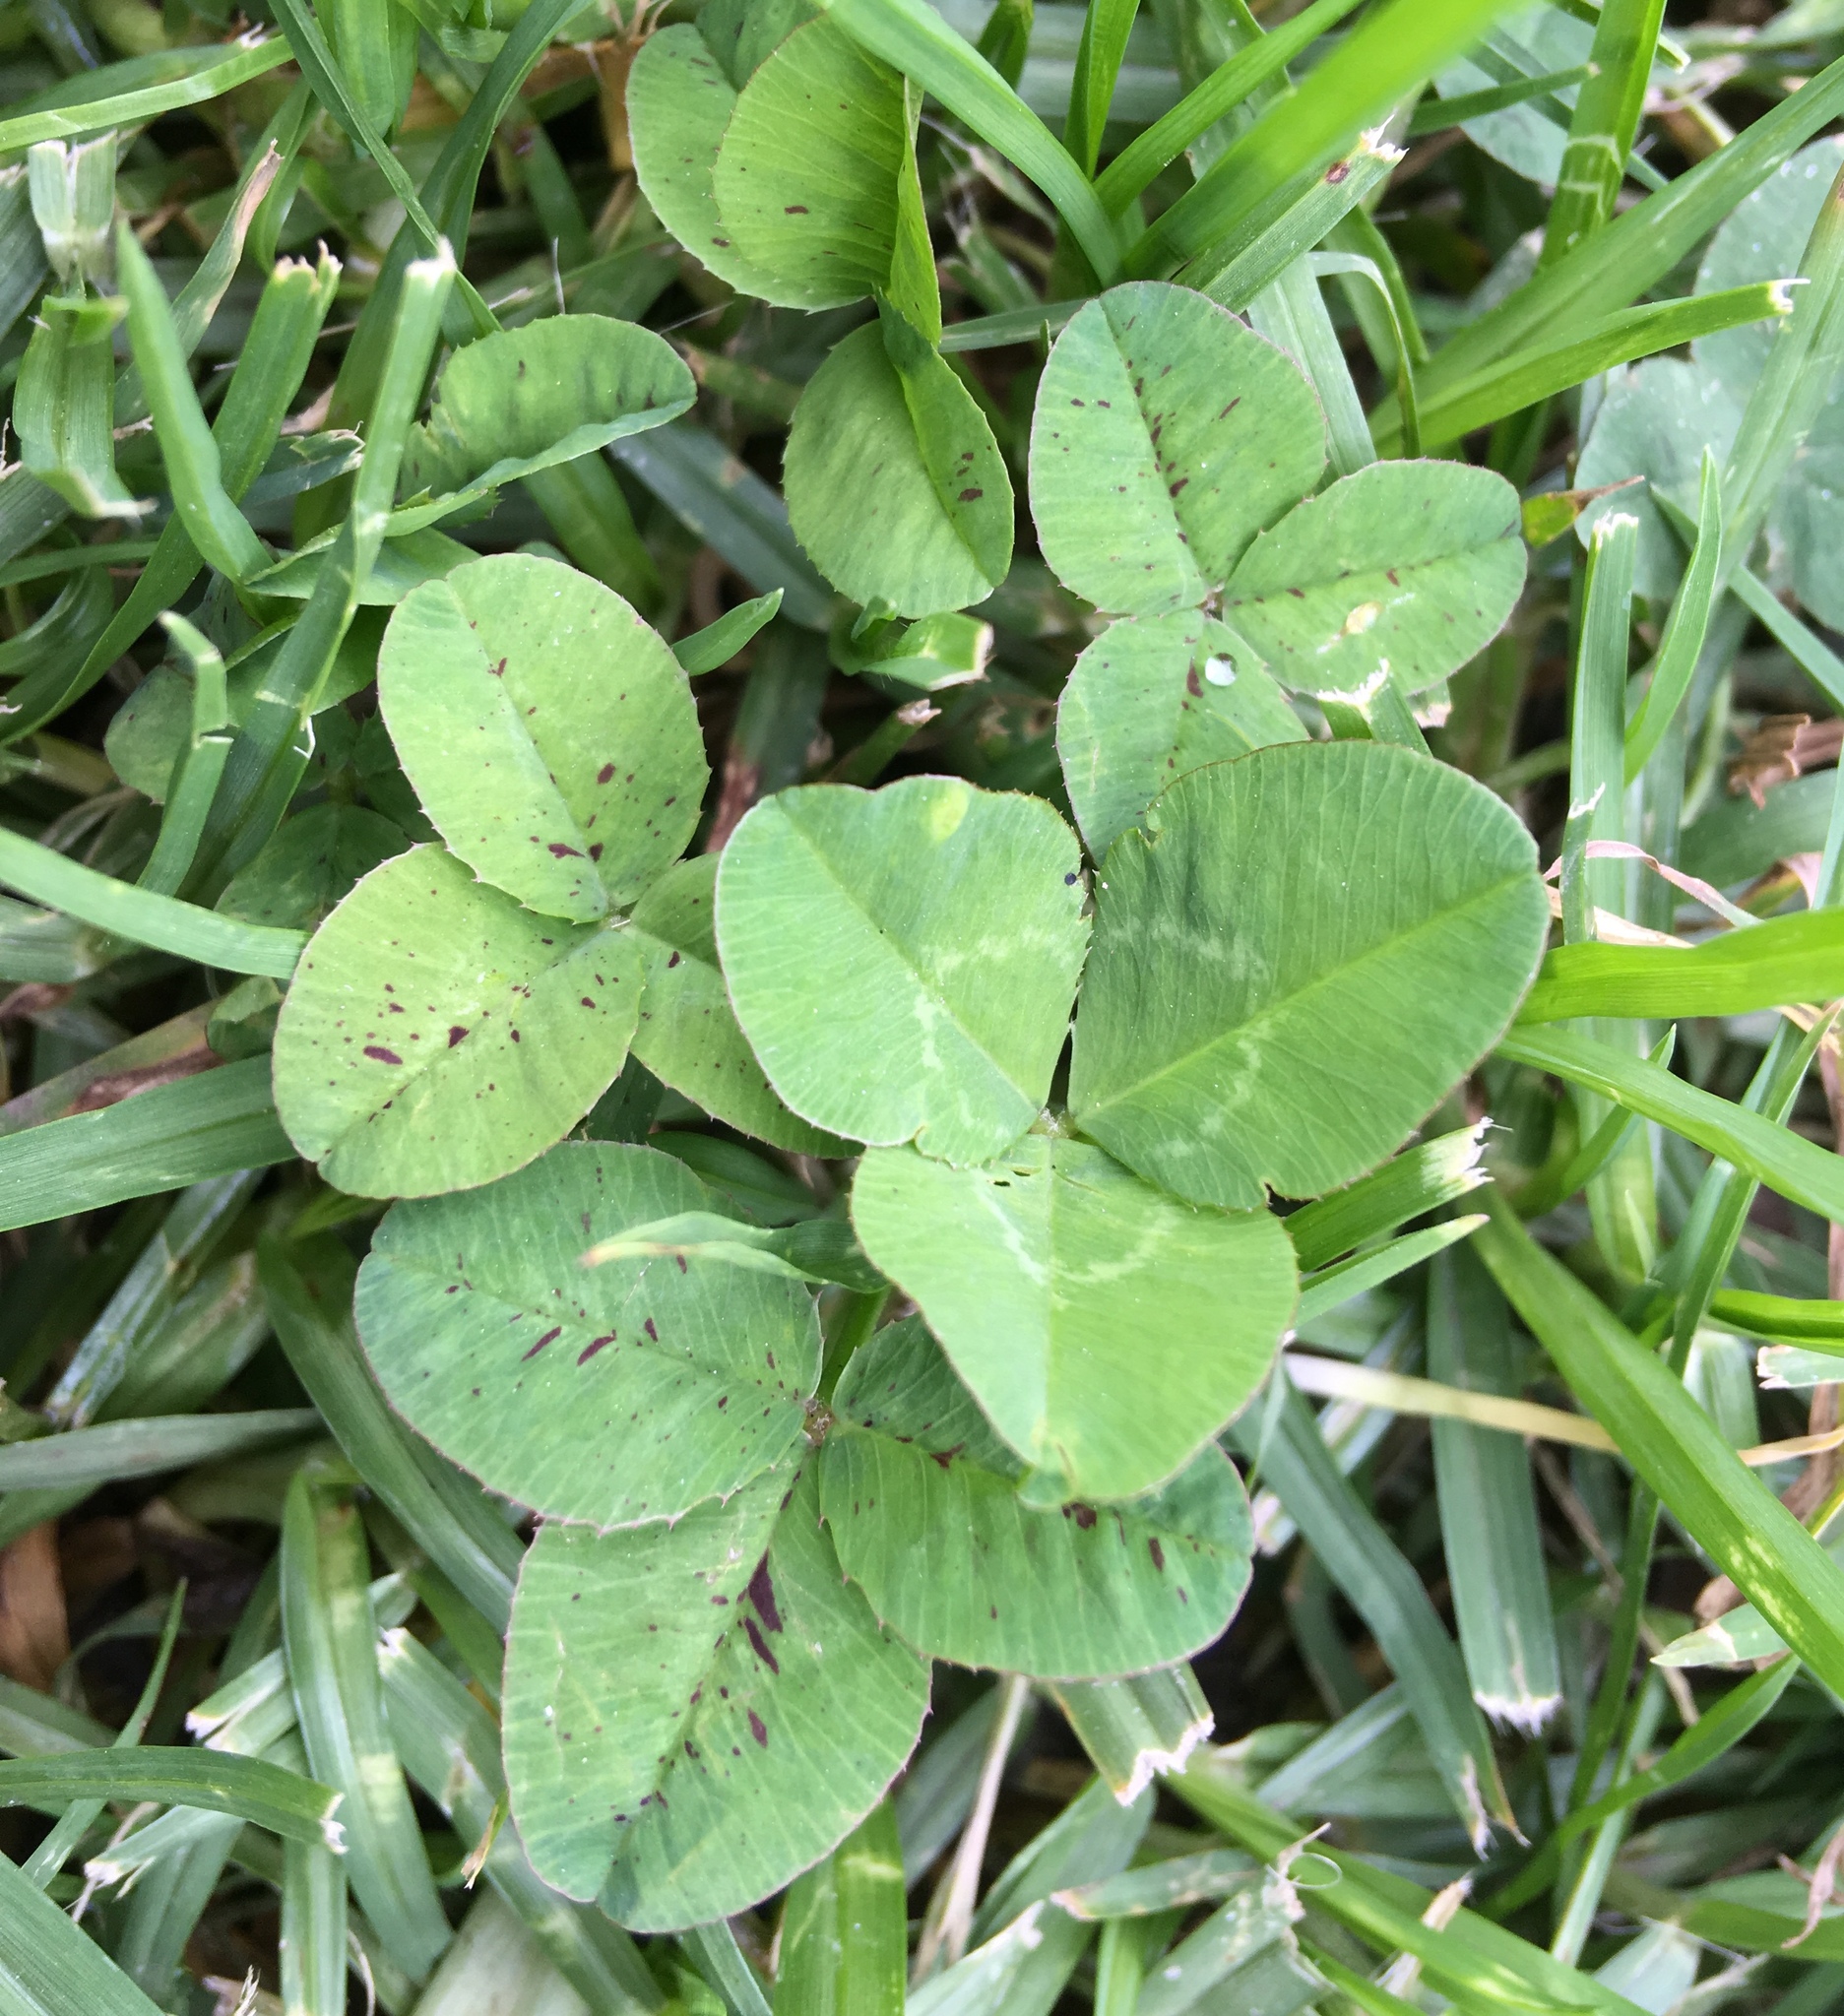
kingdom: Plantae
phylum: Tracheophyta
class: Magnoliopsida
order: Fabales
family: Fabaceae
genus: Trifolium
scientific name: Trifolium repens
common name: White clover
